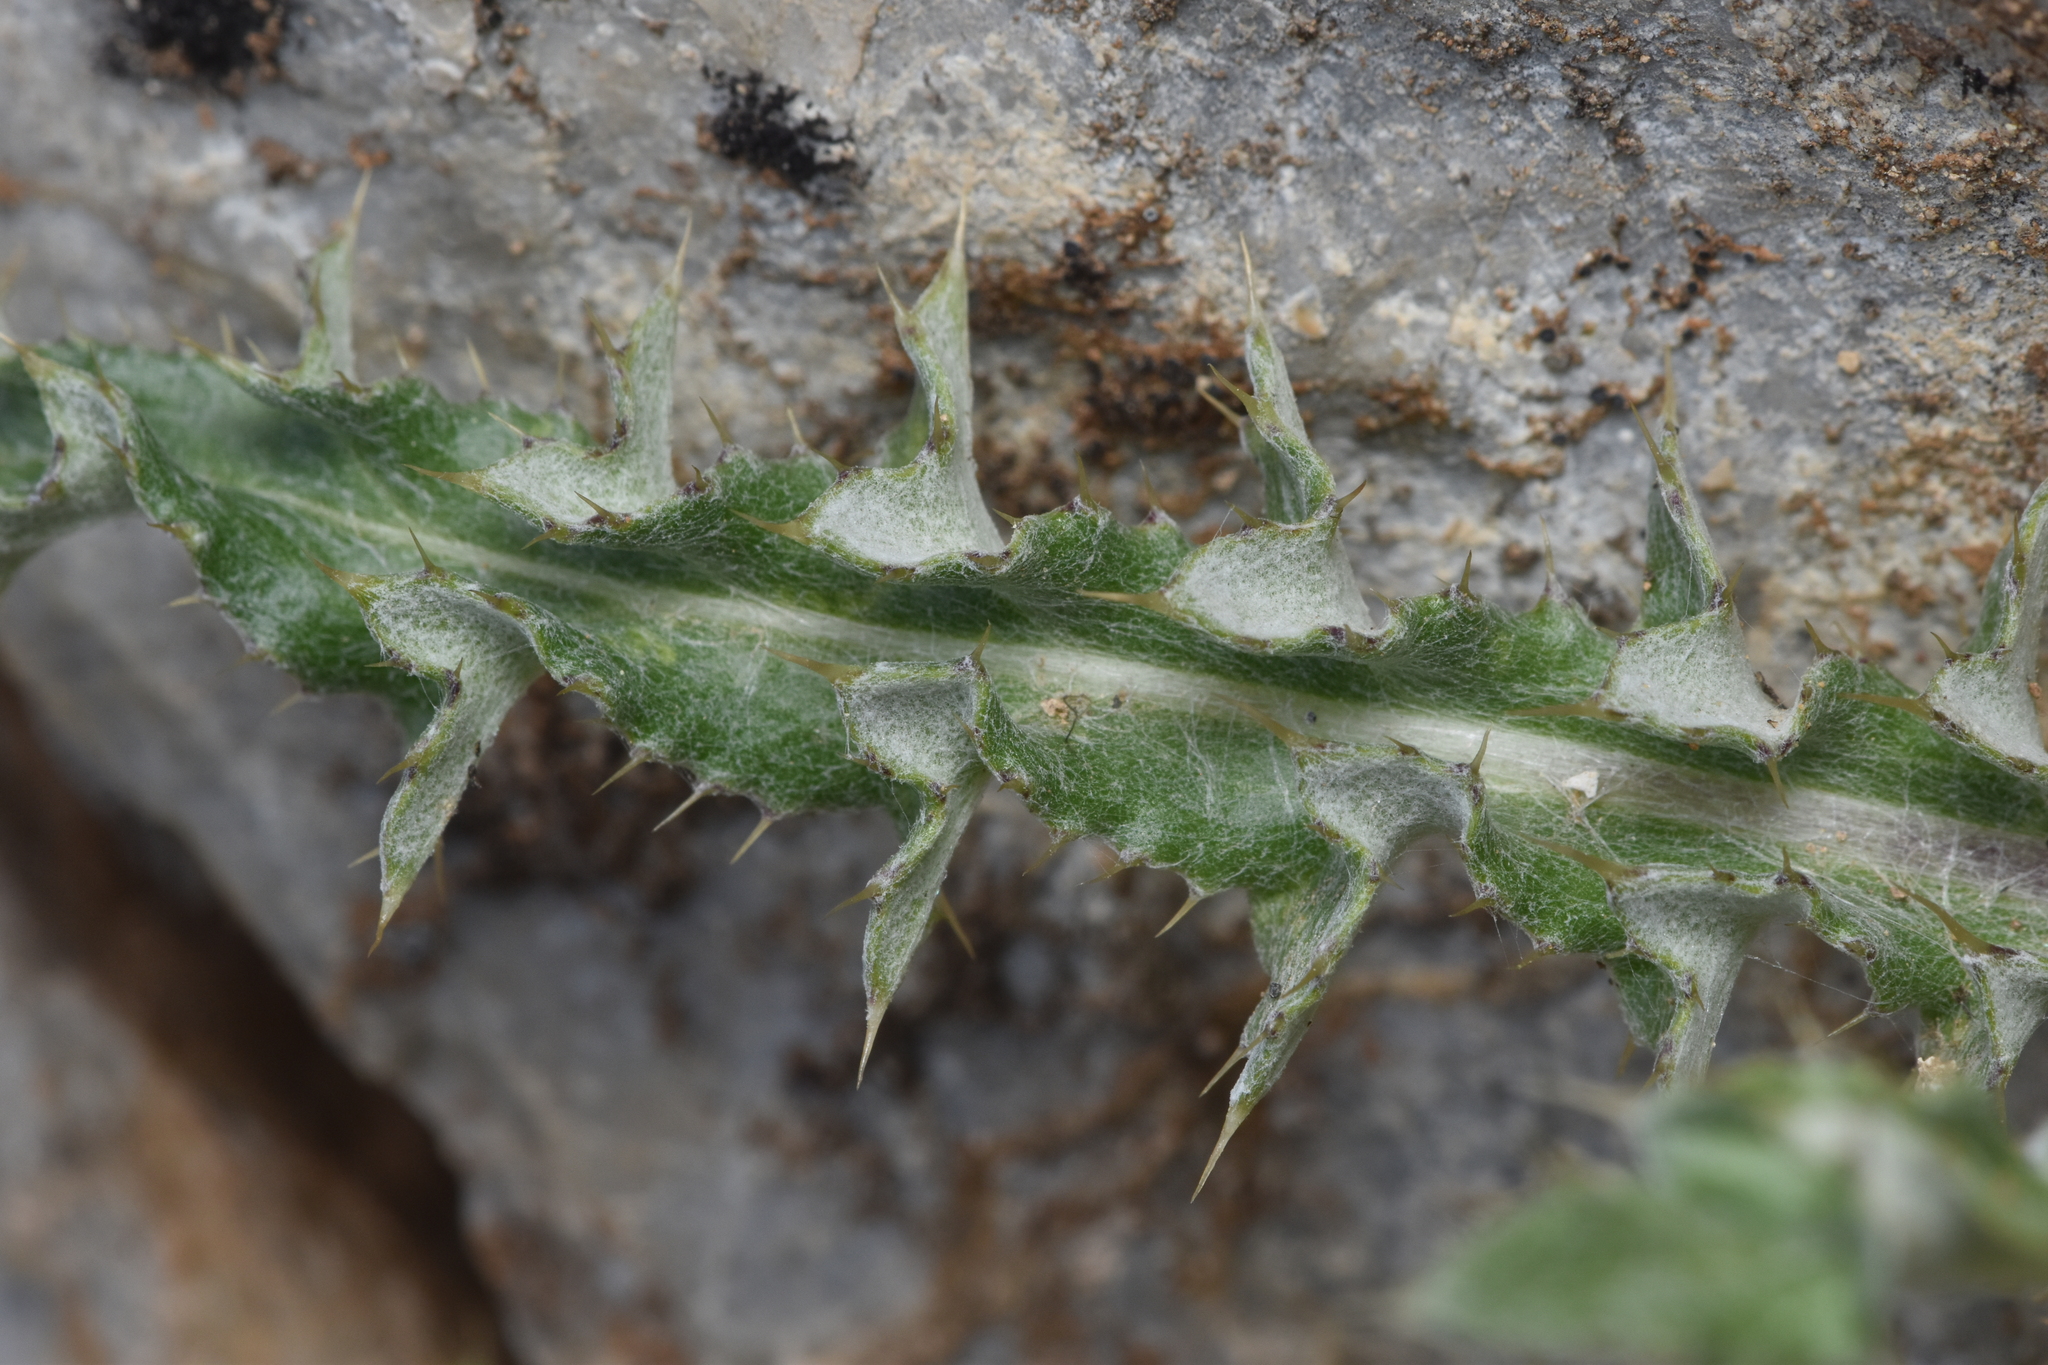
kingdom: Plantae
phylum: Tracheophyta
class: Magnoliopsida
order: Asterales
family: Asteraceae
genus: Cirsium
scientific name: Cirsium hookerianum
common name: Hooker's thistle
